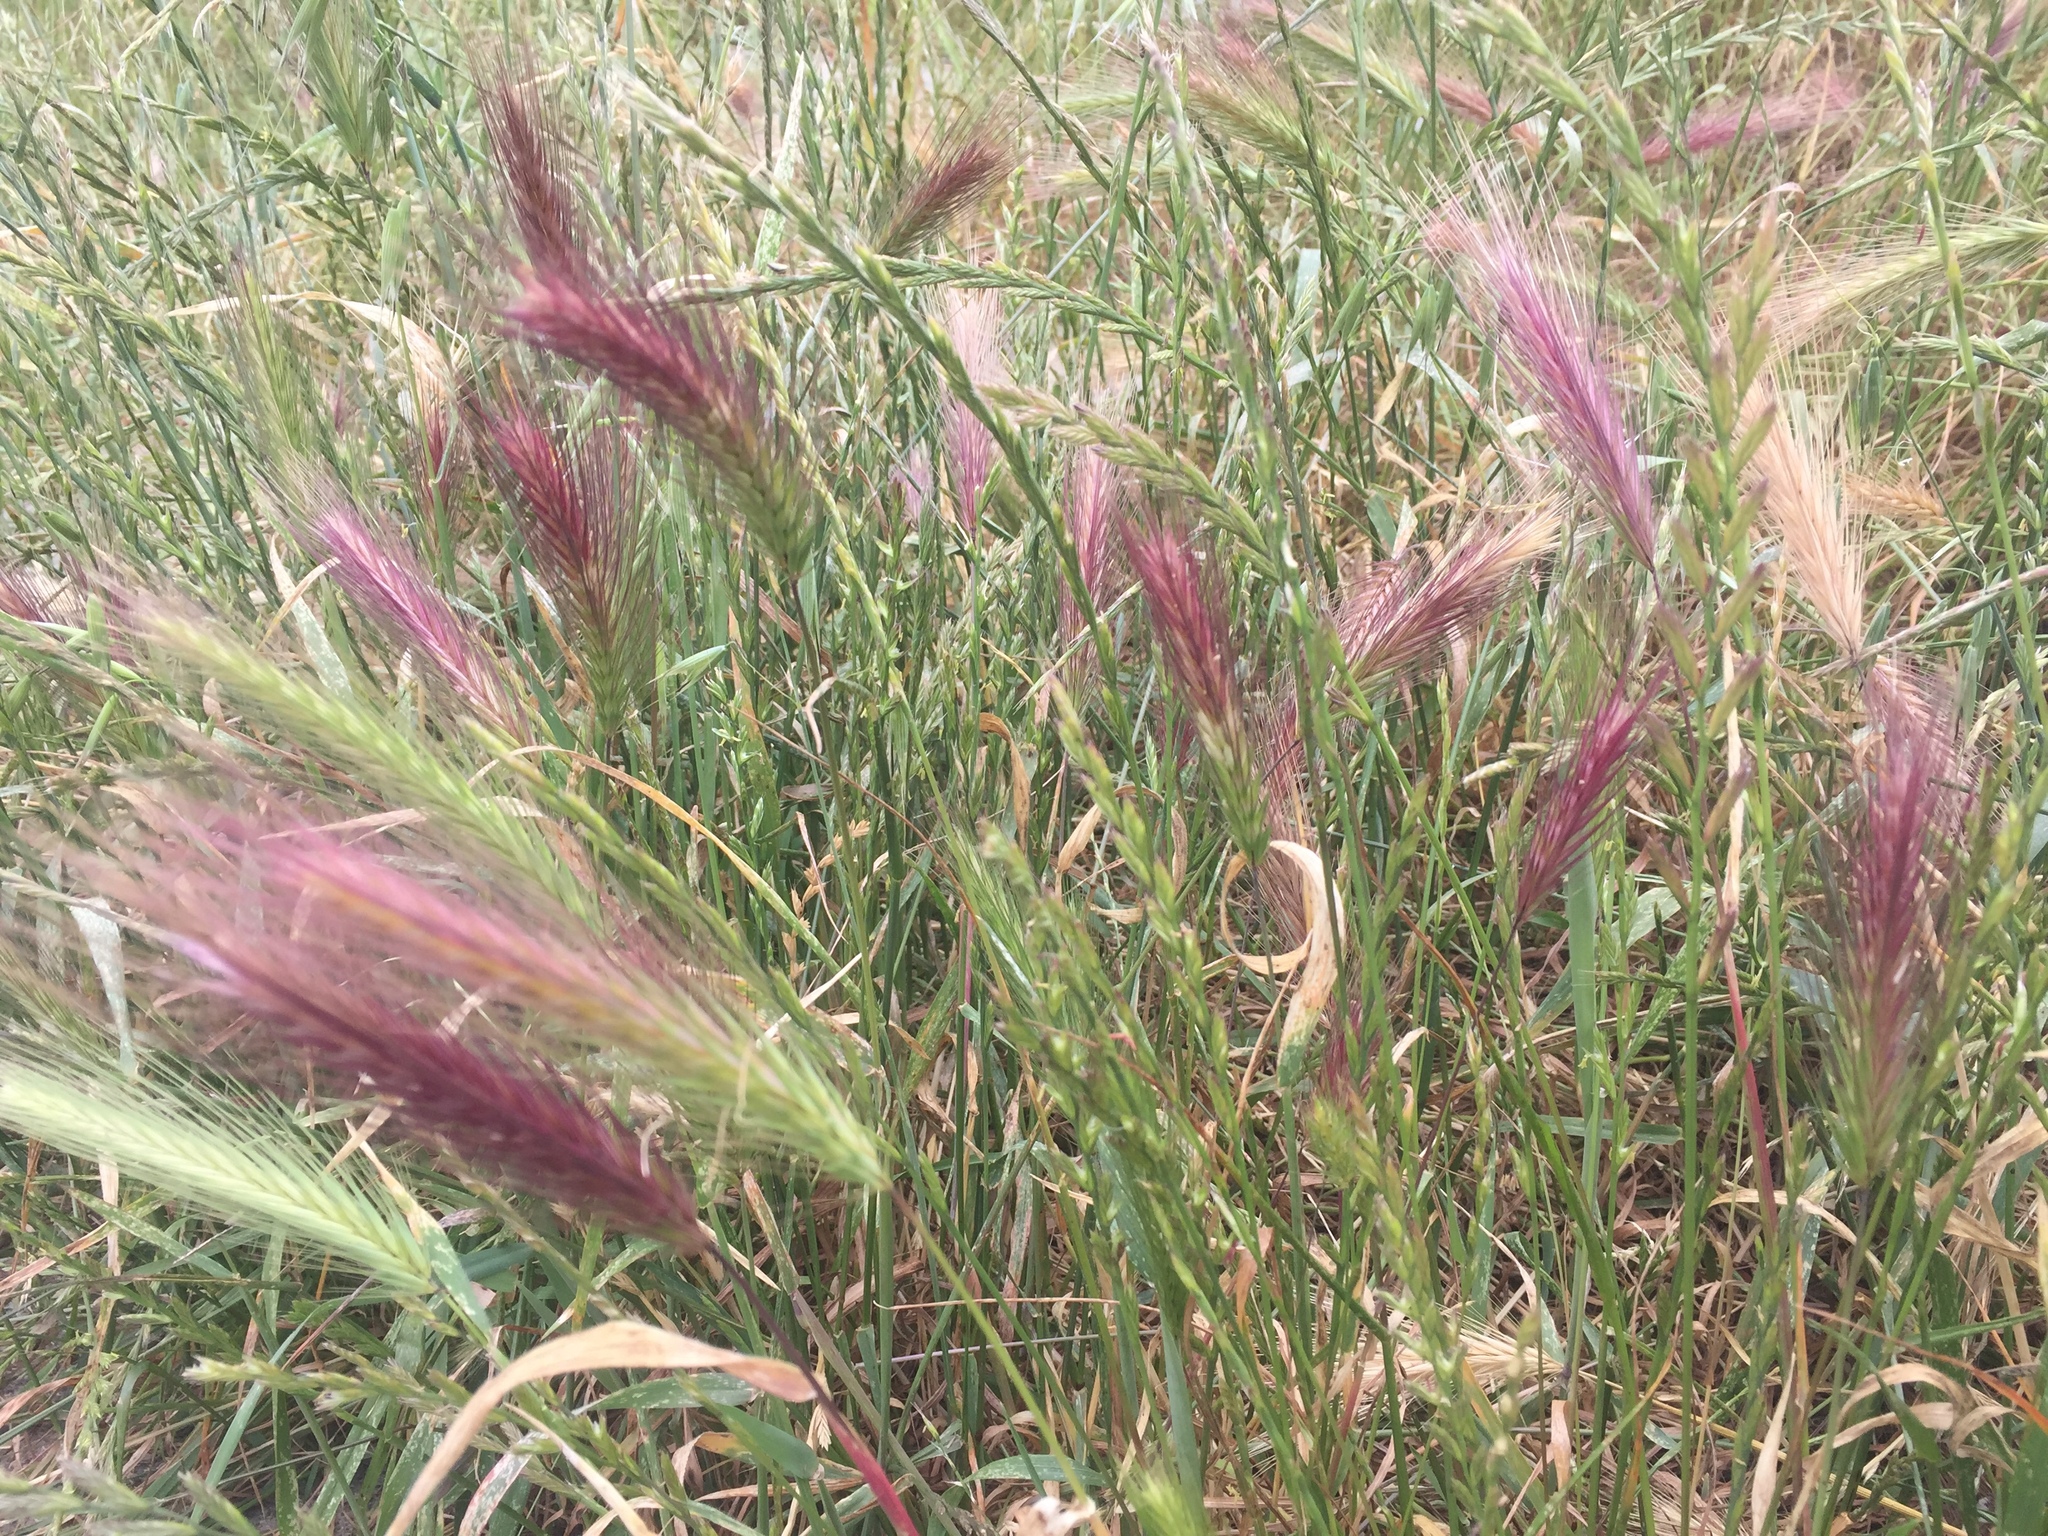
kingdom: Plantae
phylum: Tracheophyta
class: Liliopsida
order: Poales
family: Poaceae
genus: Hordeum
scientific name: Hordeum murinum
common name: Wall barley
